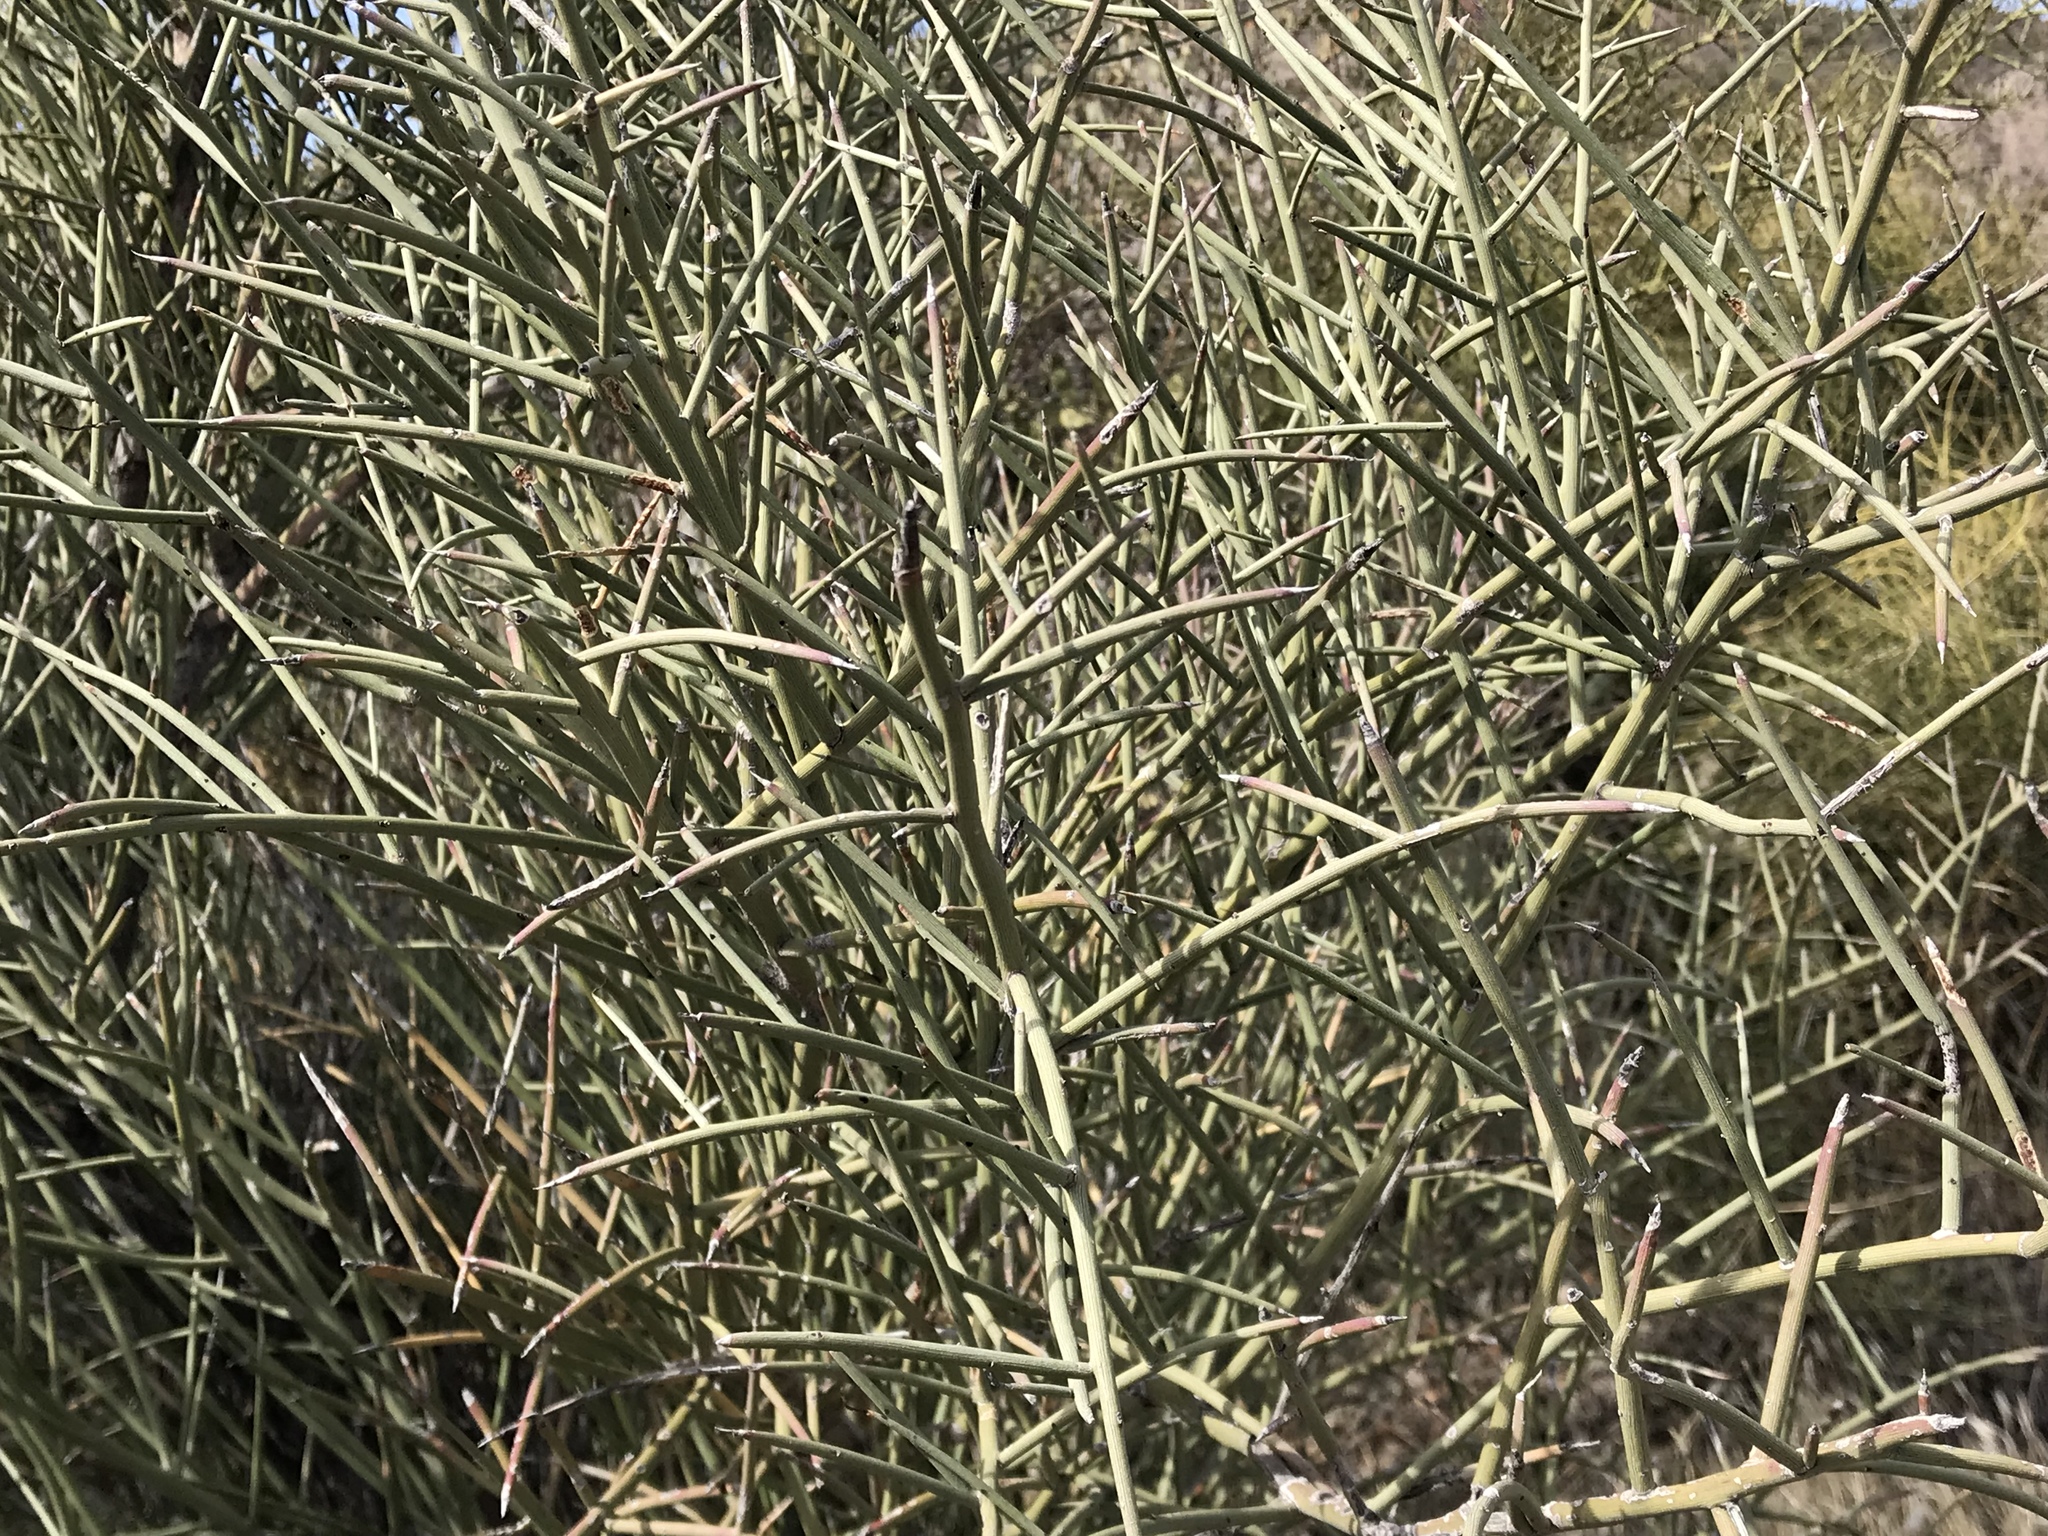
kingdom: Plantae
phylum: Tracheophyta
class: Magnoliopsida
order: Celastrales
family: Celastraceae
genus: Canotia
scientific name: Canotia holacantha
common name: Crucifixion thorns
